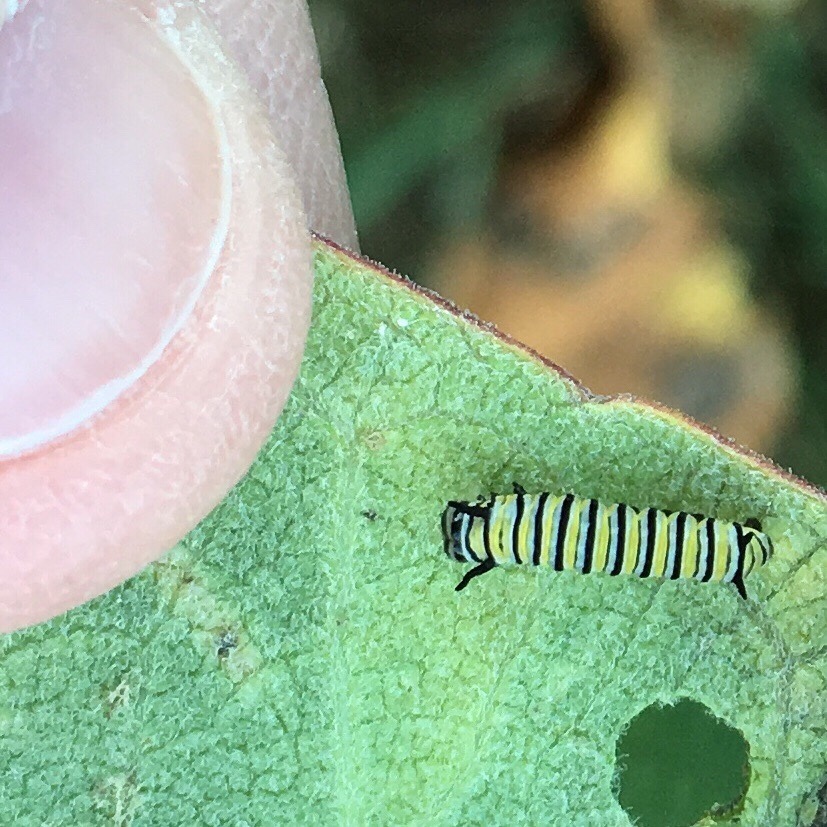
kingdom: Animalia
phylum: Arthropoda
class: Insecta
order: Lepidoptera
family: Nymphalidae
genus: Danaus
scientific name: Danaus plexippus
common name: Monarch
